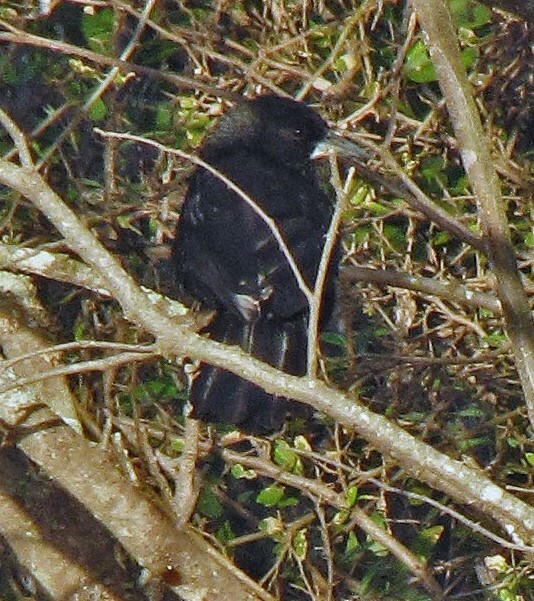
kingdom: Animalia
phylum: Chordata
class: Aves
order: Passeriformes
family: Icteridae
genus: Cacicus
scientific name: Cacicus solitarius
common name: Solitary cacique
